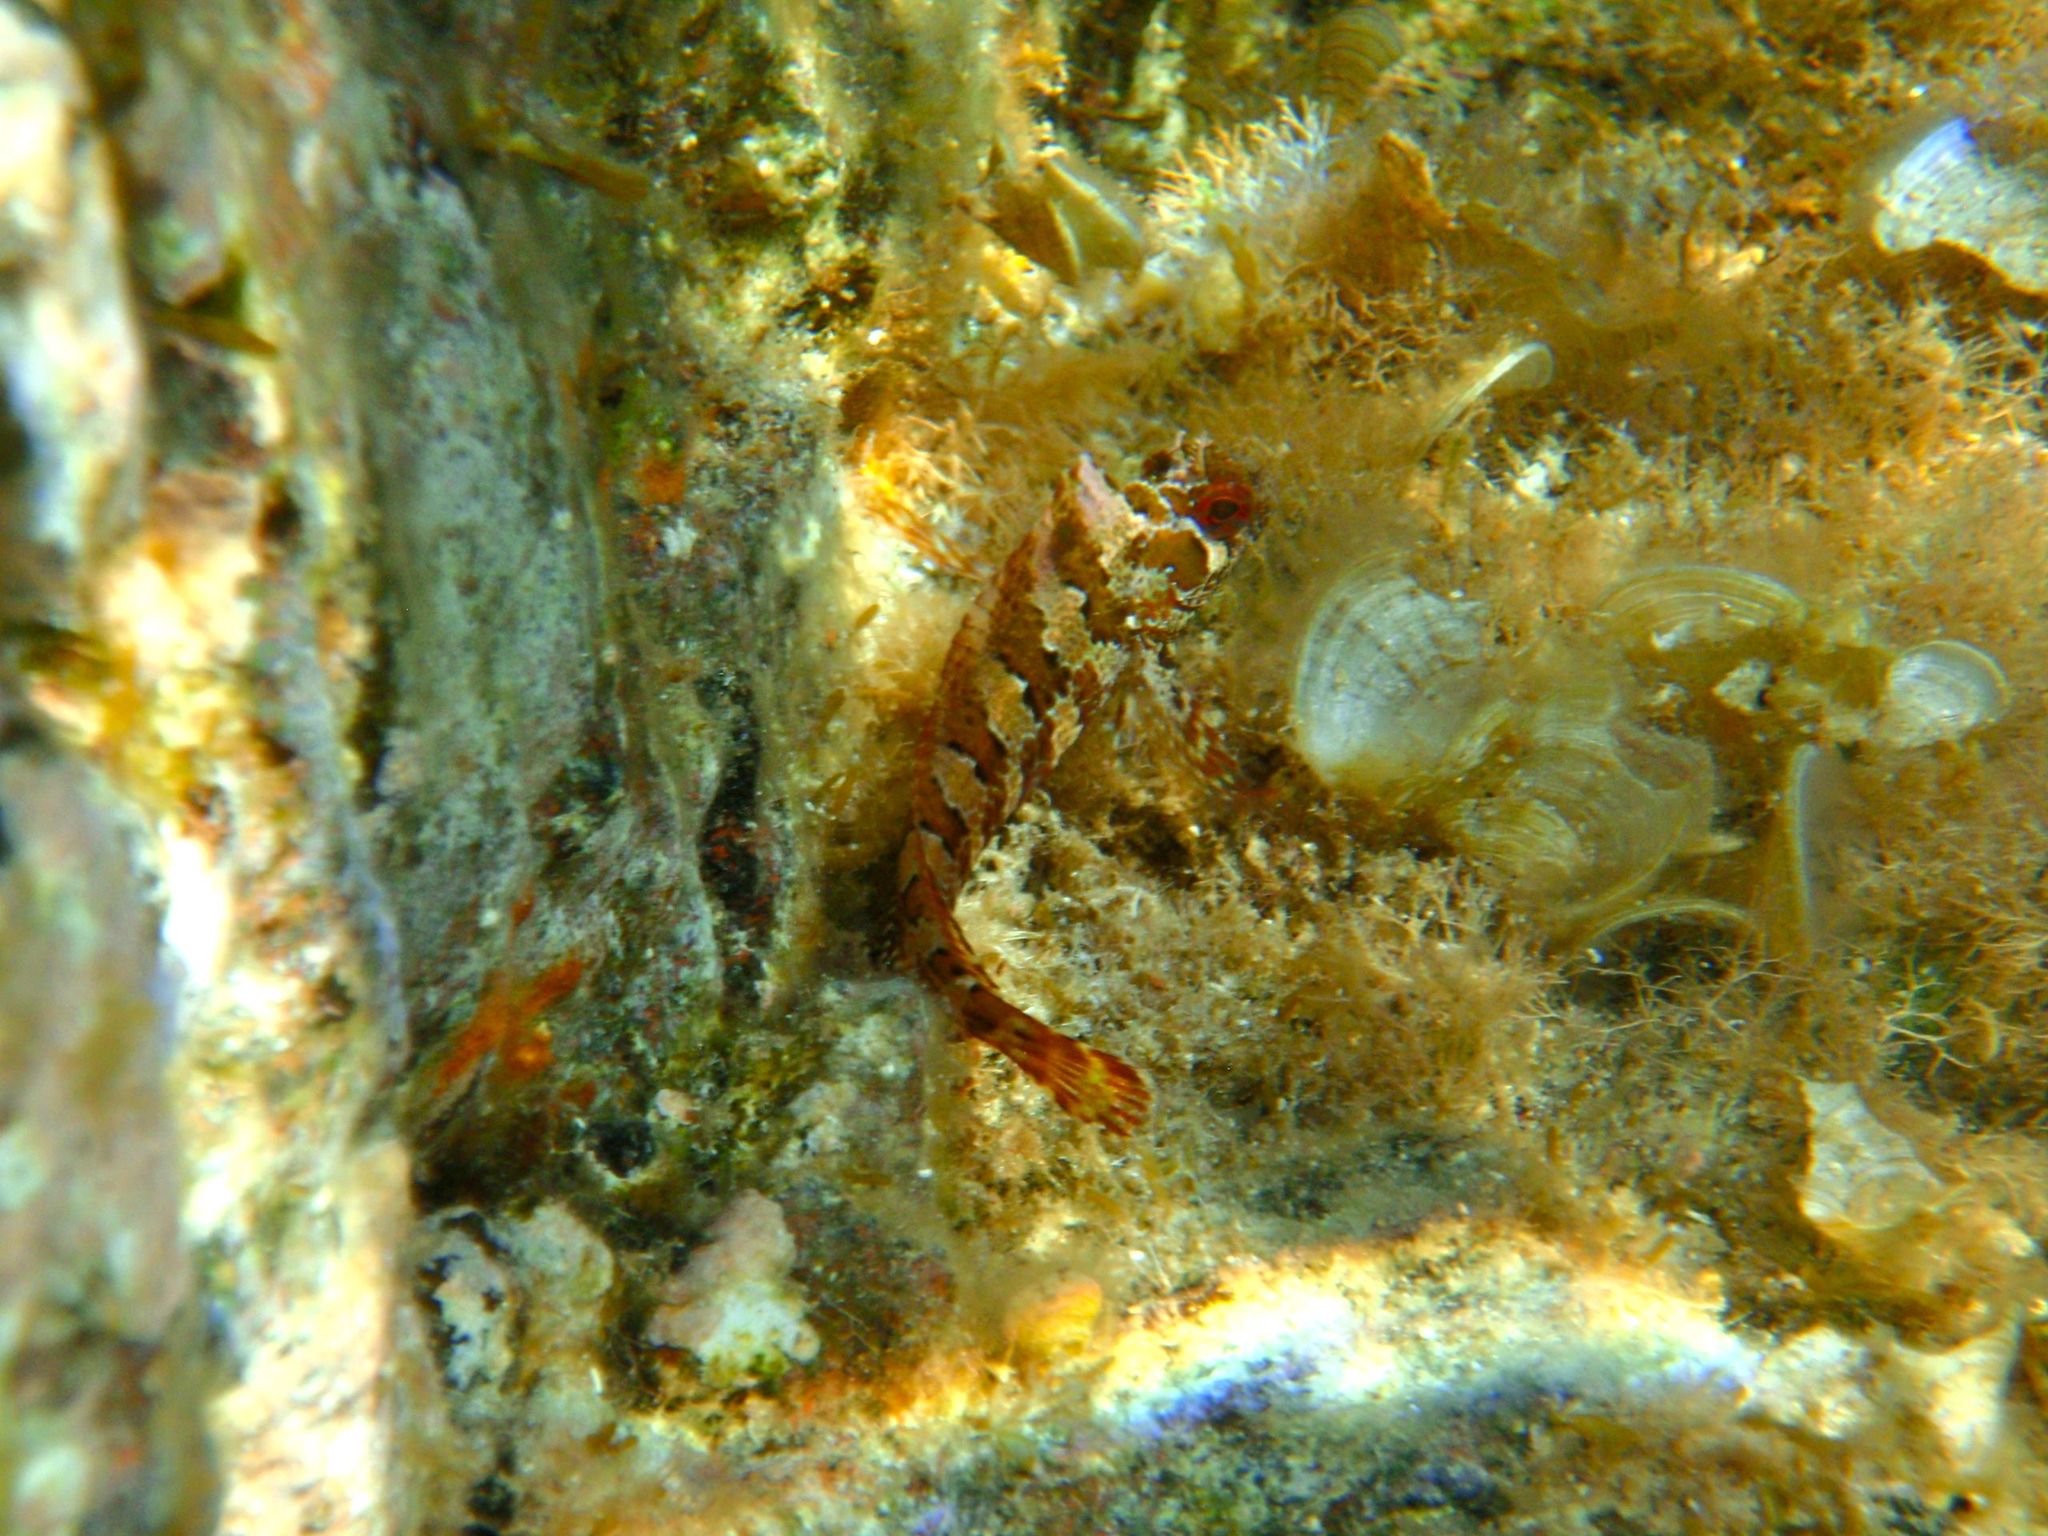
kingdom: Animalia
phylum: Chordata
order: Perciformes
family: Blenniidae
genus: Parablennius
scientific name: Parablennius gattorugine
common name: Tompot blenny
